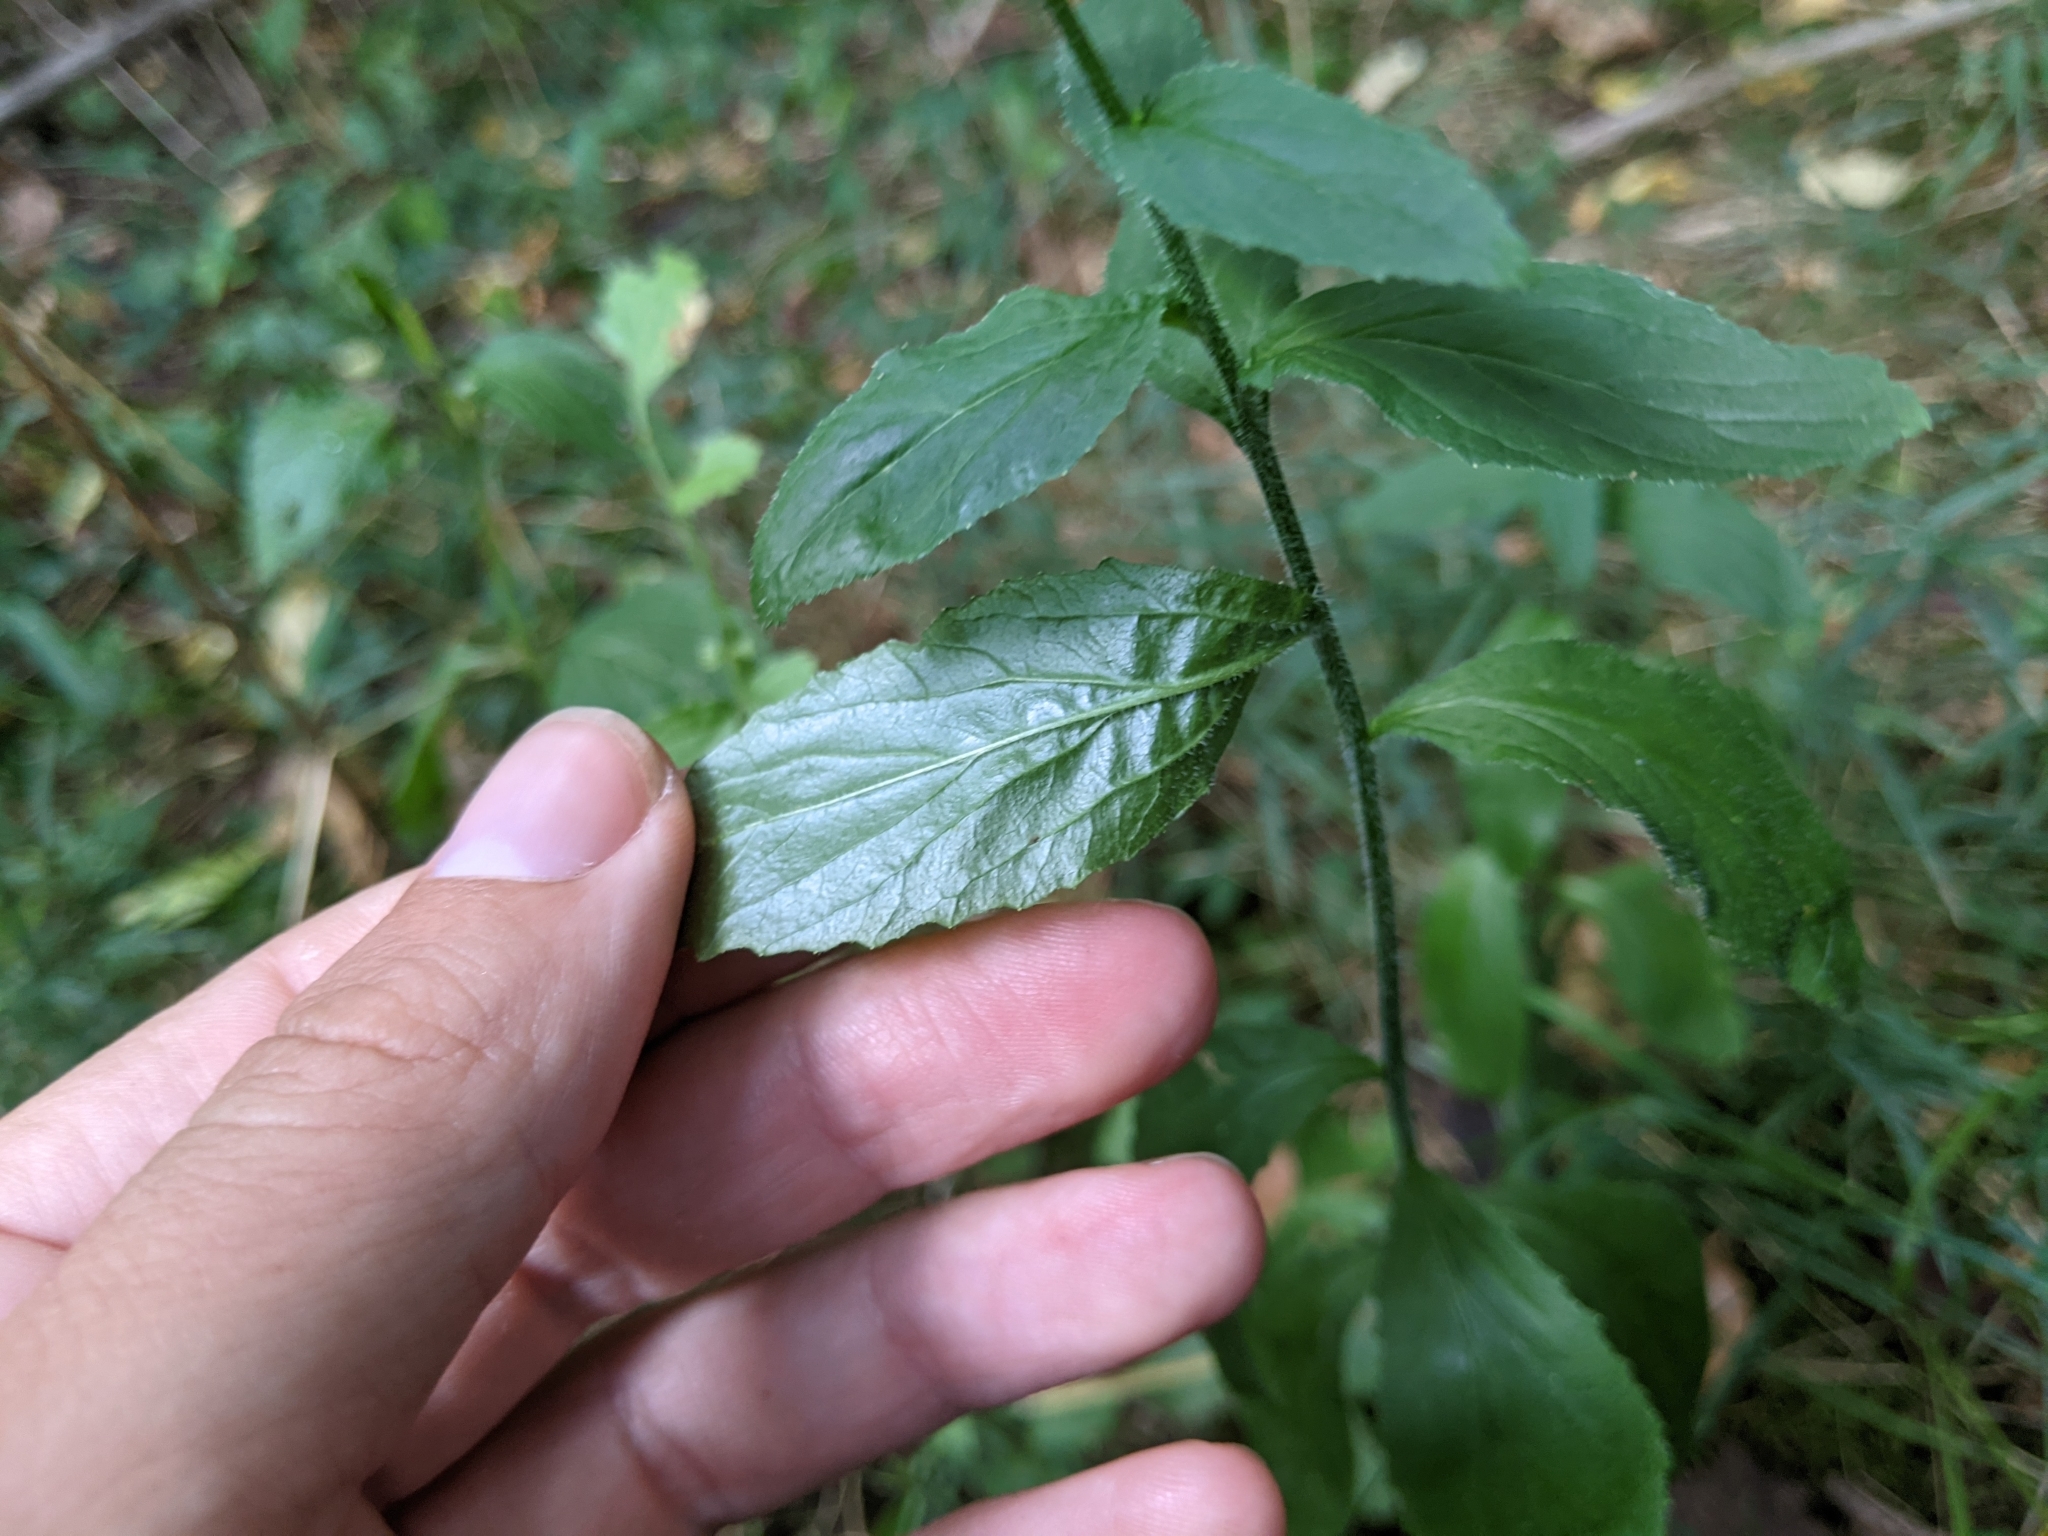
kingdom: Plantae
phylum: Tracheophyta
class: Magnoliopsida
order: Asterales
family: Campanulaceae
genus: Lobelia
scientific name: Lobelia inflata
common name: Indian tobacco
